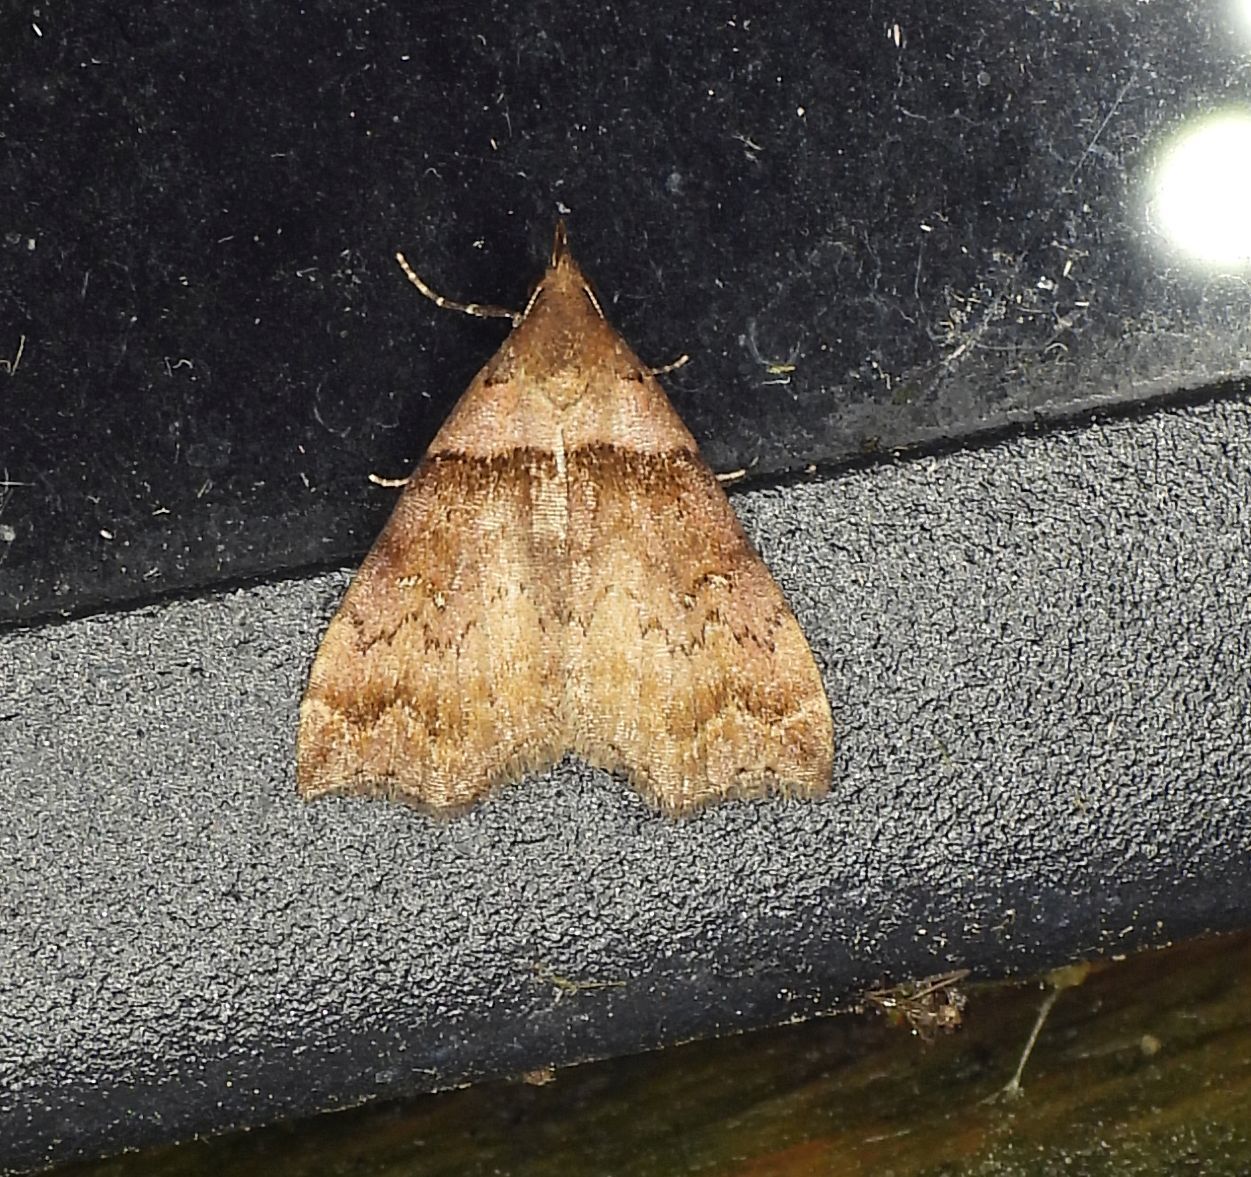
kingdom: Animalia
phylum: Arthropoda
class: Insecta
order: Lepidoptera
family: Erebidae
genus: Lascoria
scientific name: Lascoria ambigualis
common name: Ambiguous moth
